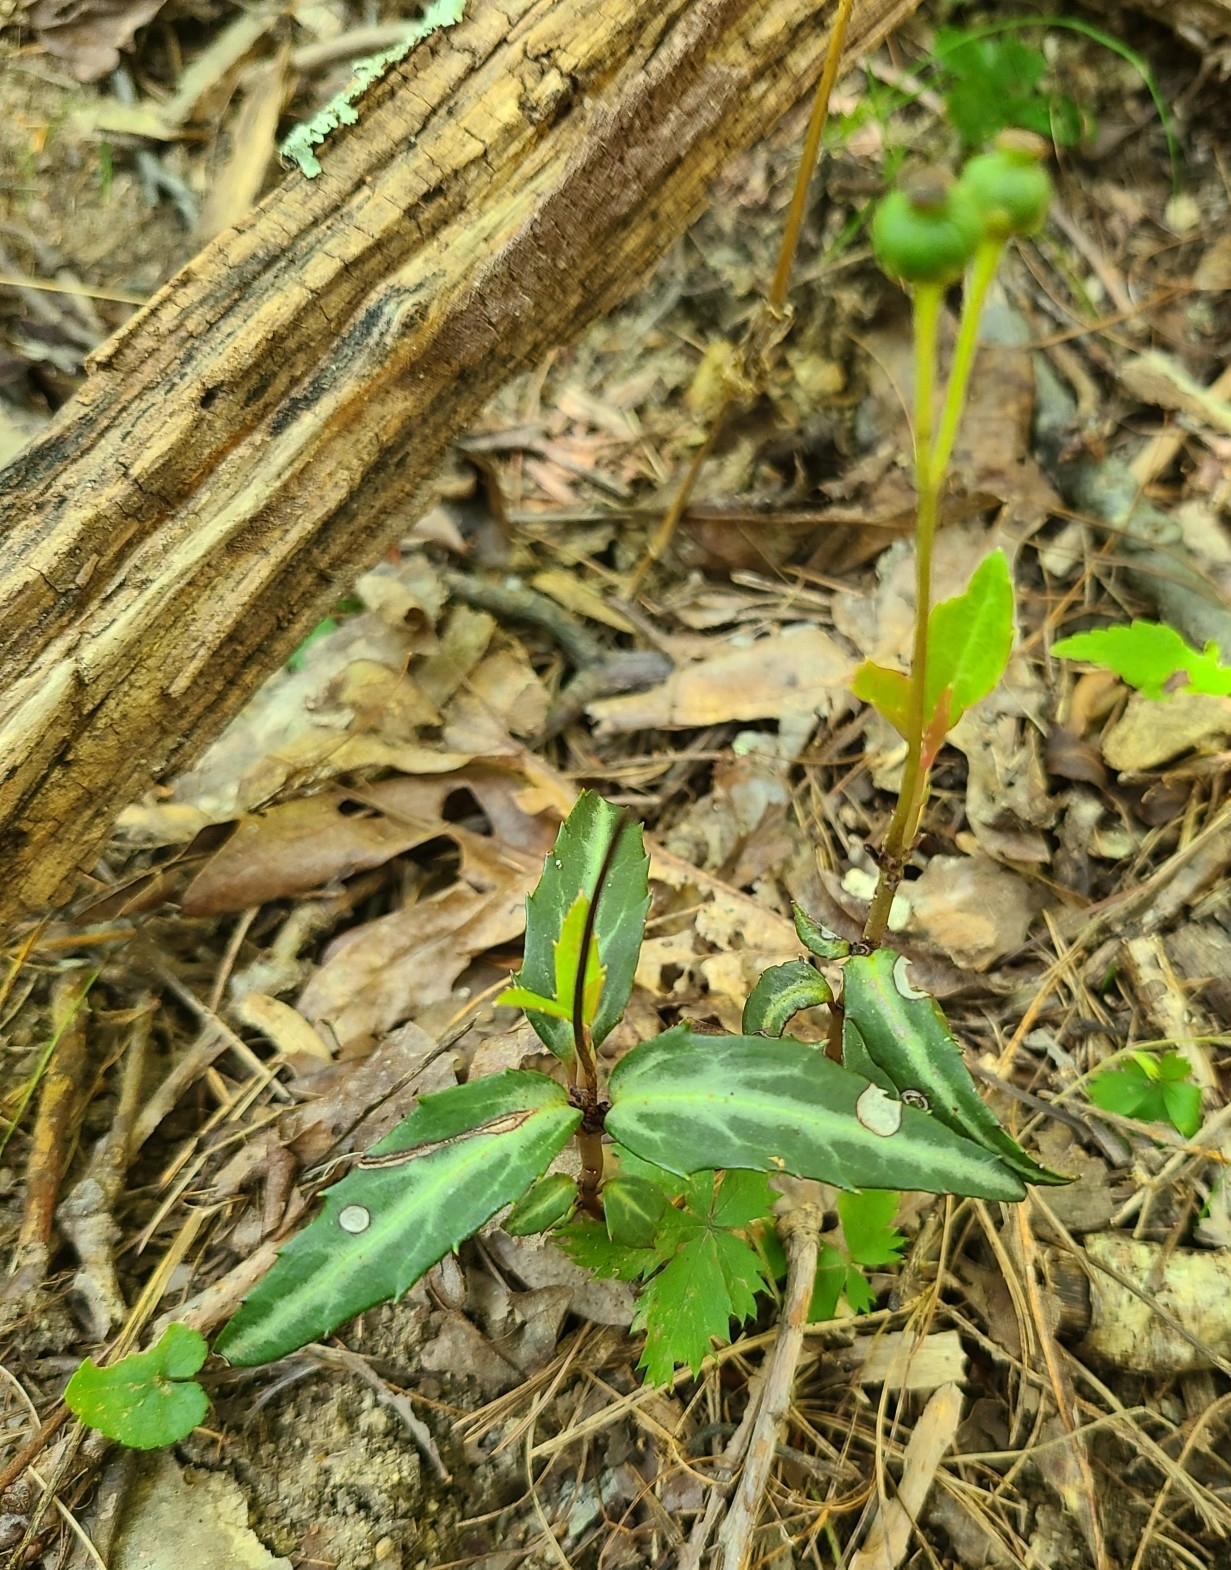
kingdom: Plantae
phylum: Tracheophyta
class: Magnoliopsida
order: Ericales
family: Ericaceae
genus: Chimaphila
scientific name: Chimaphila maculata
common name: Spotted pipsissewa
